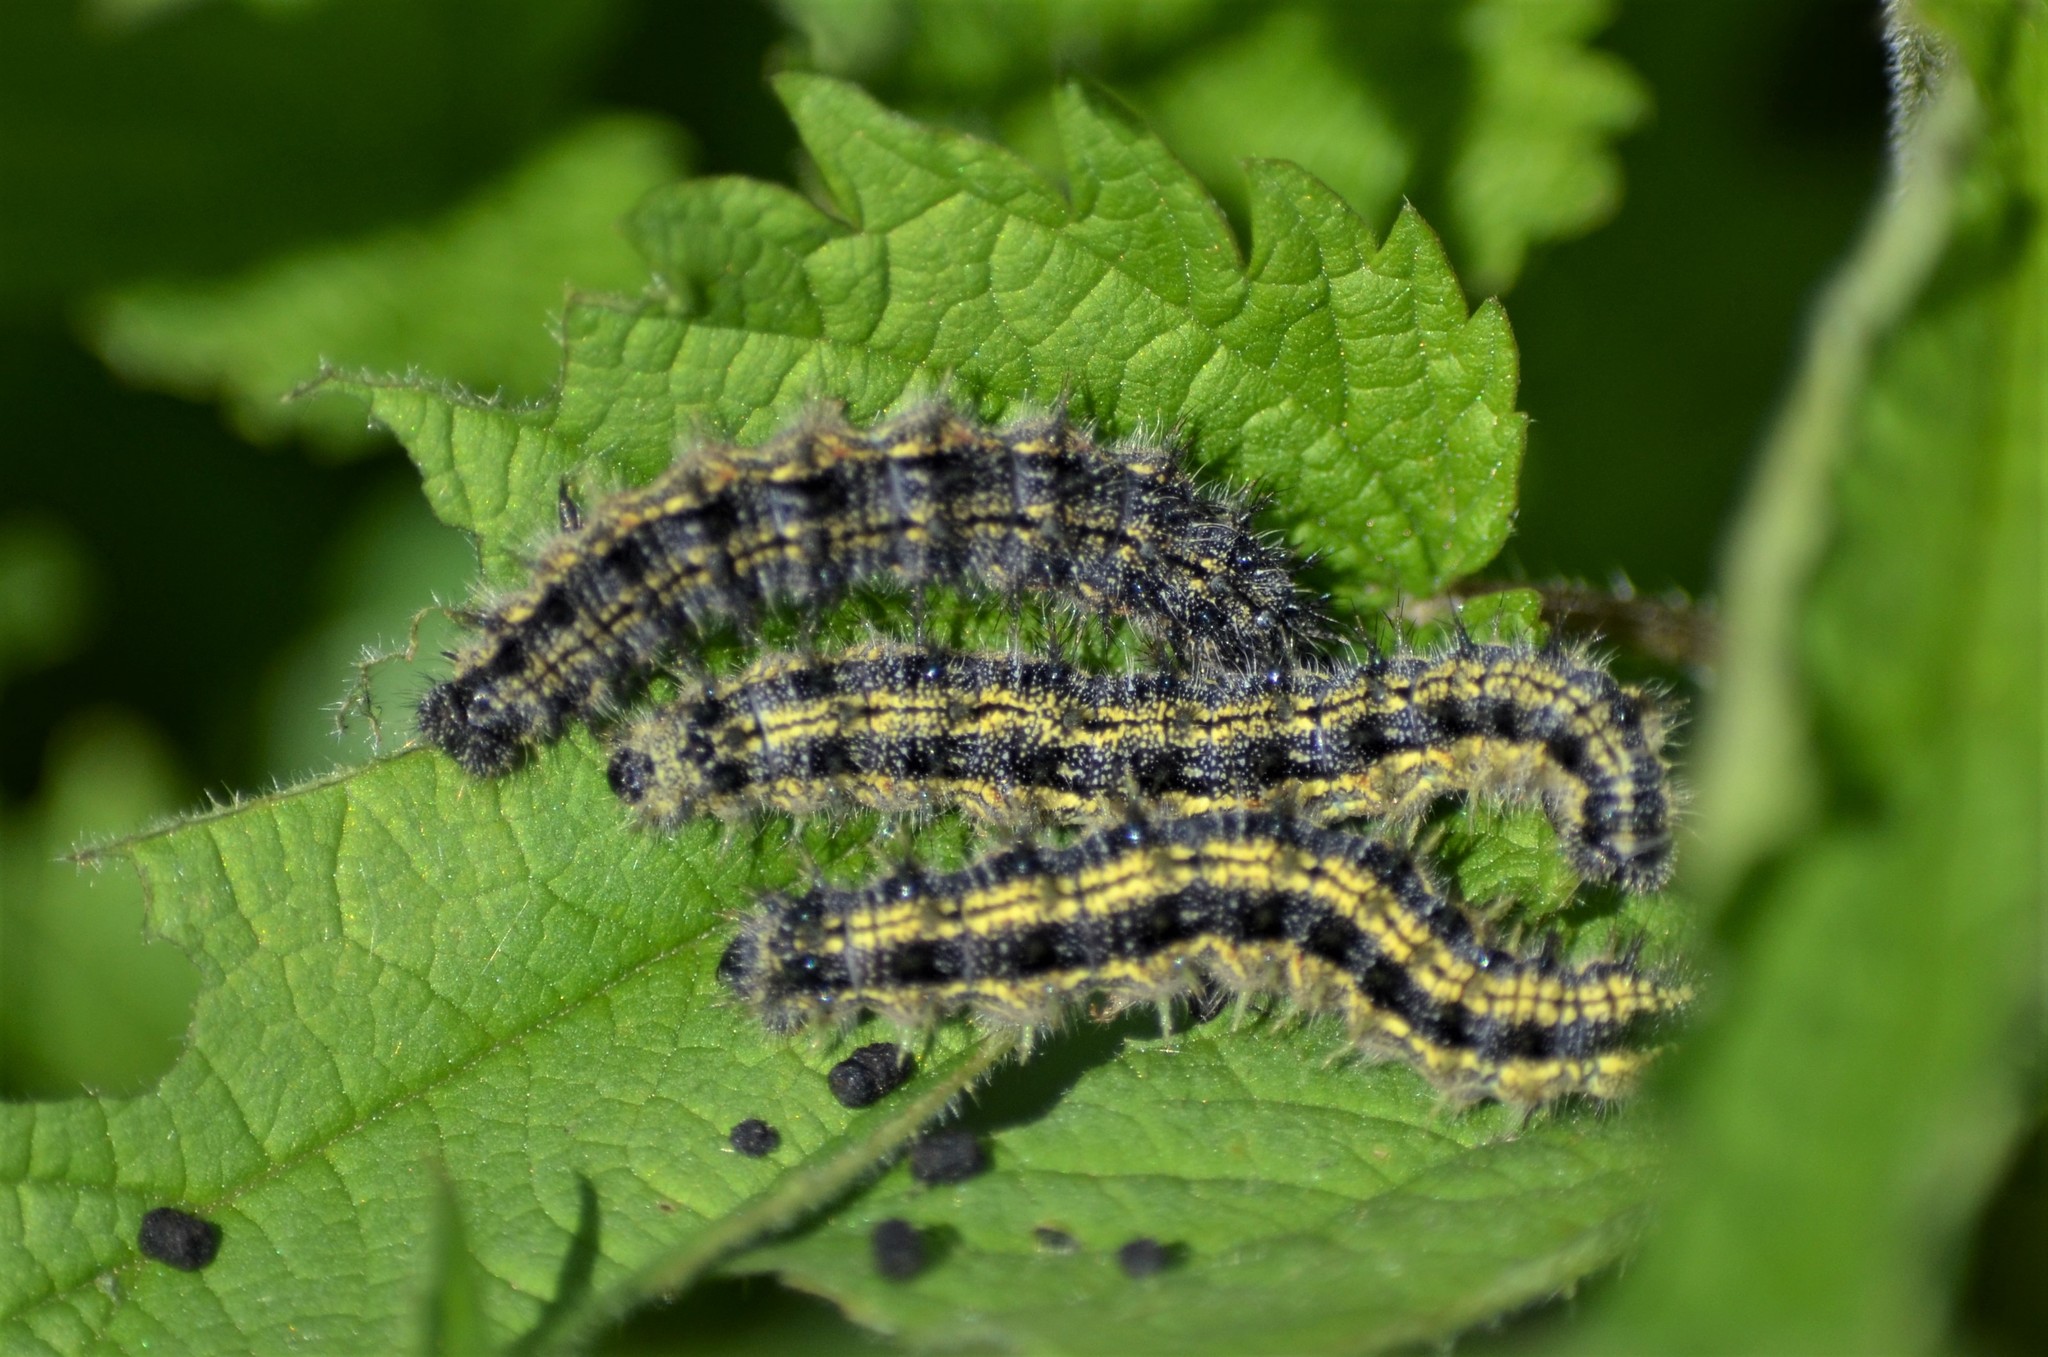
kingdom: Animalia
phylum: Arthropoda
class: Insecta
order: Lepidoptera
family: Nymphalidae
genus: Aglais
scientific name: Aglais urticae
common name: Small tortoiseshell
